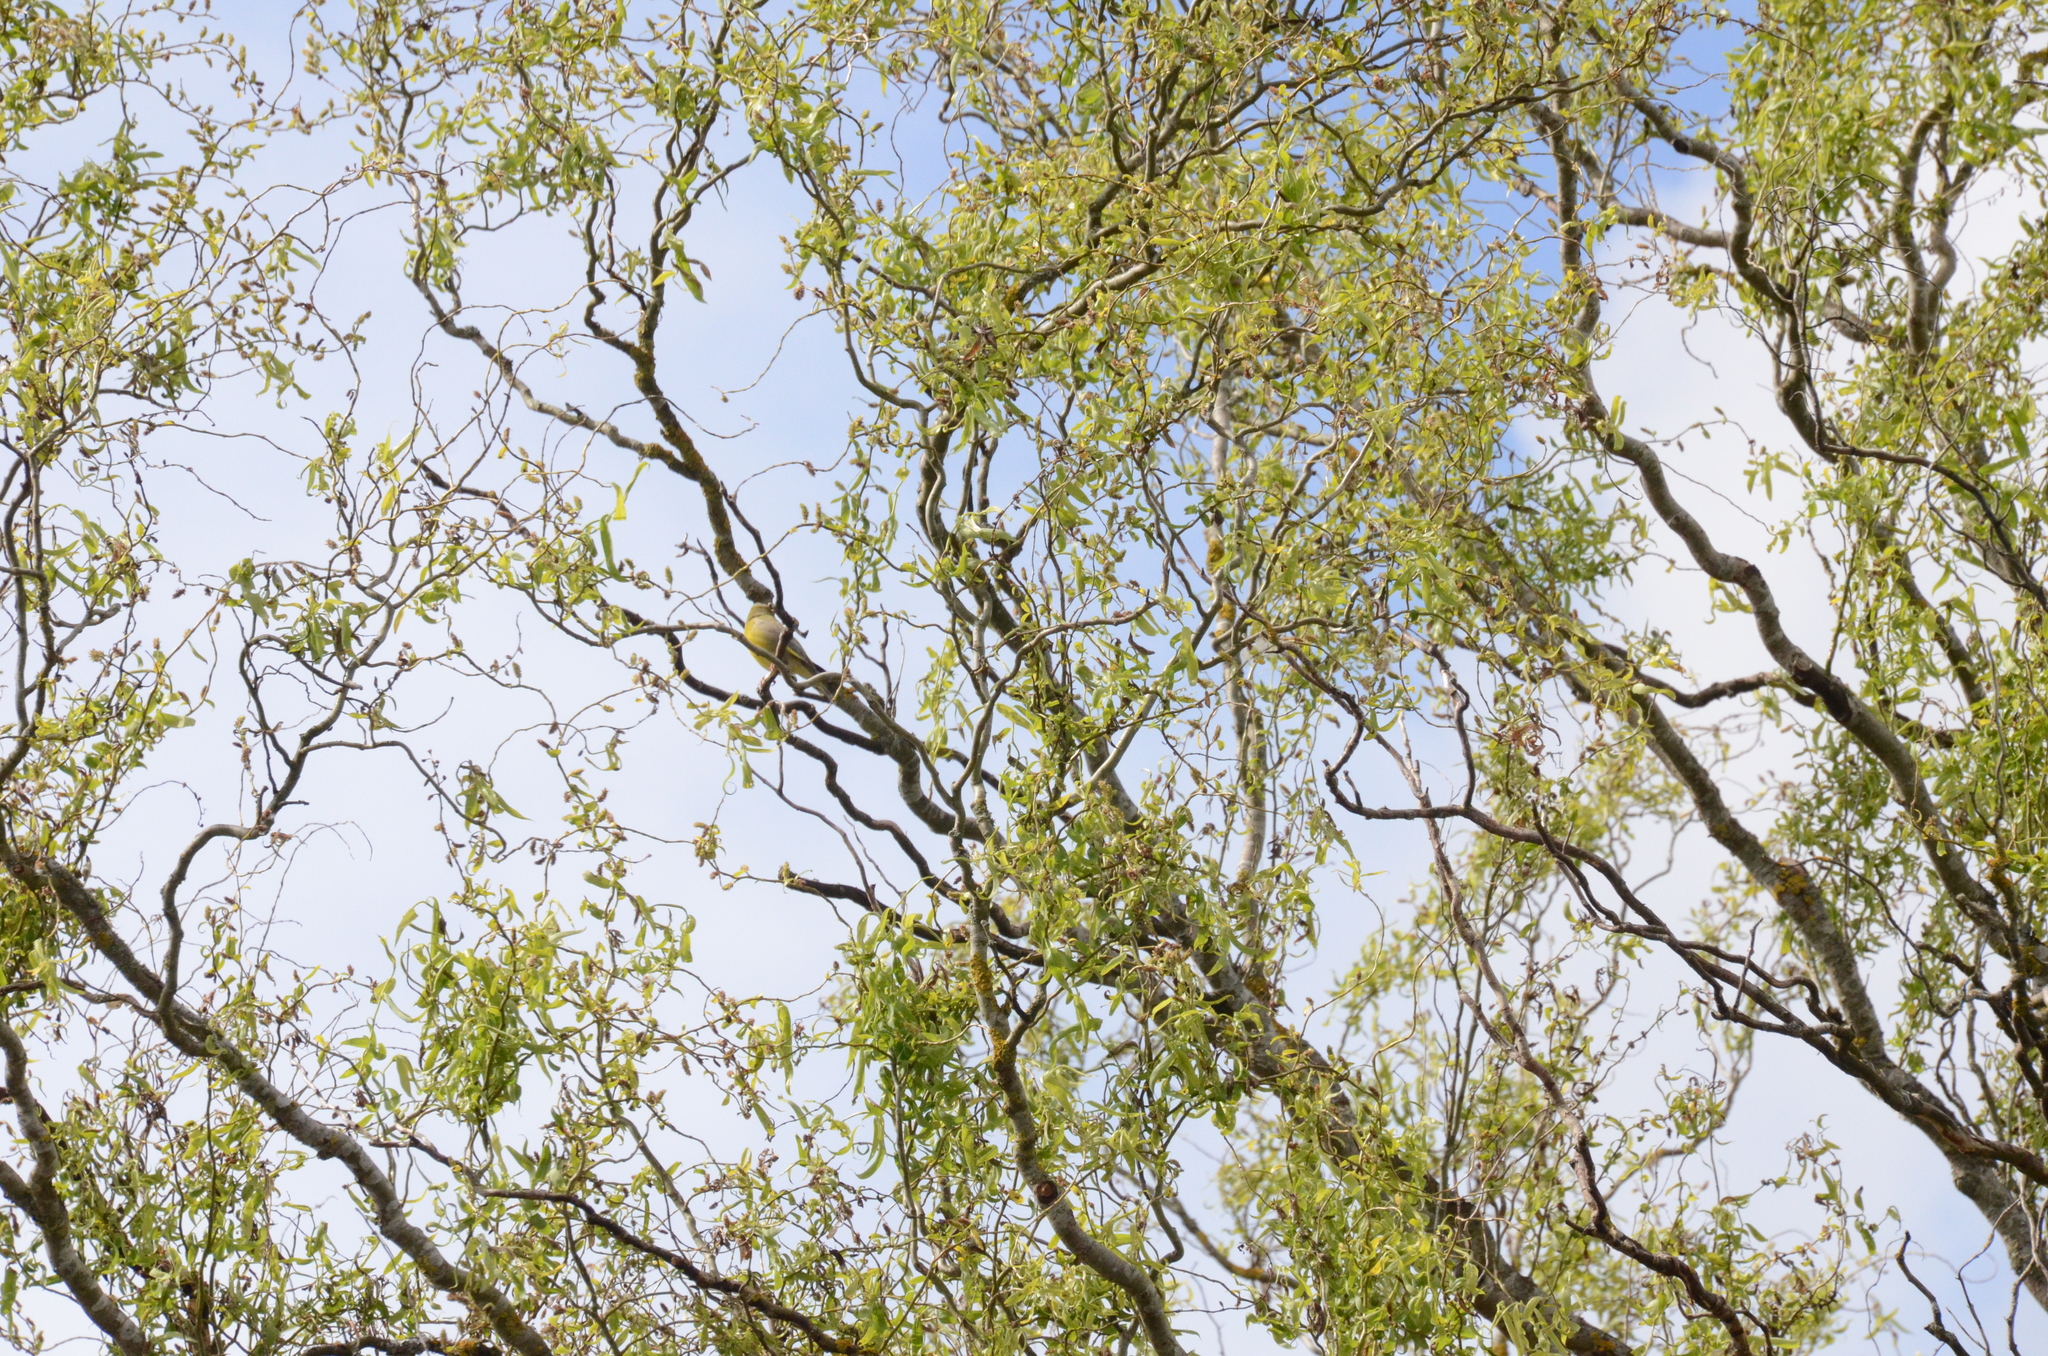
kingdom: Plantae
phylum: Tracheophyta
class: Liliopsida
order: Poales
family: Poaceae
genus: Chloris
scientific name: Chloris chloris
